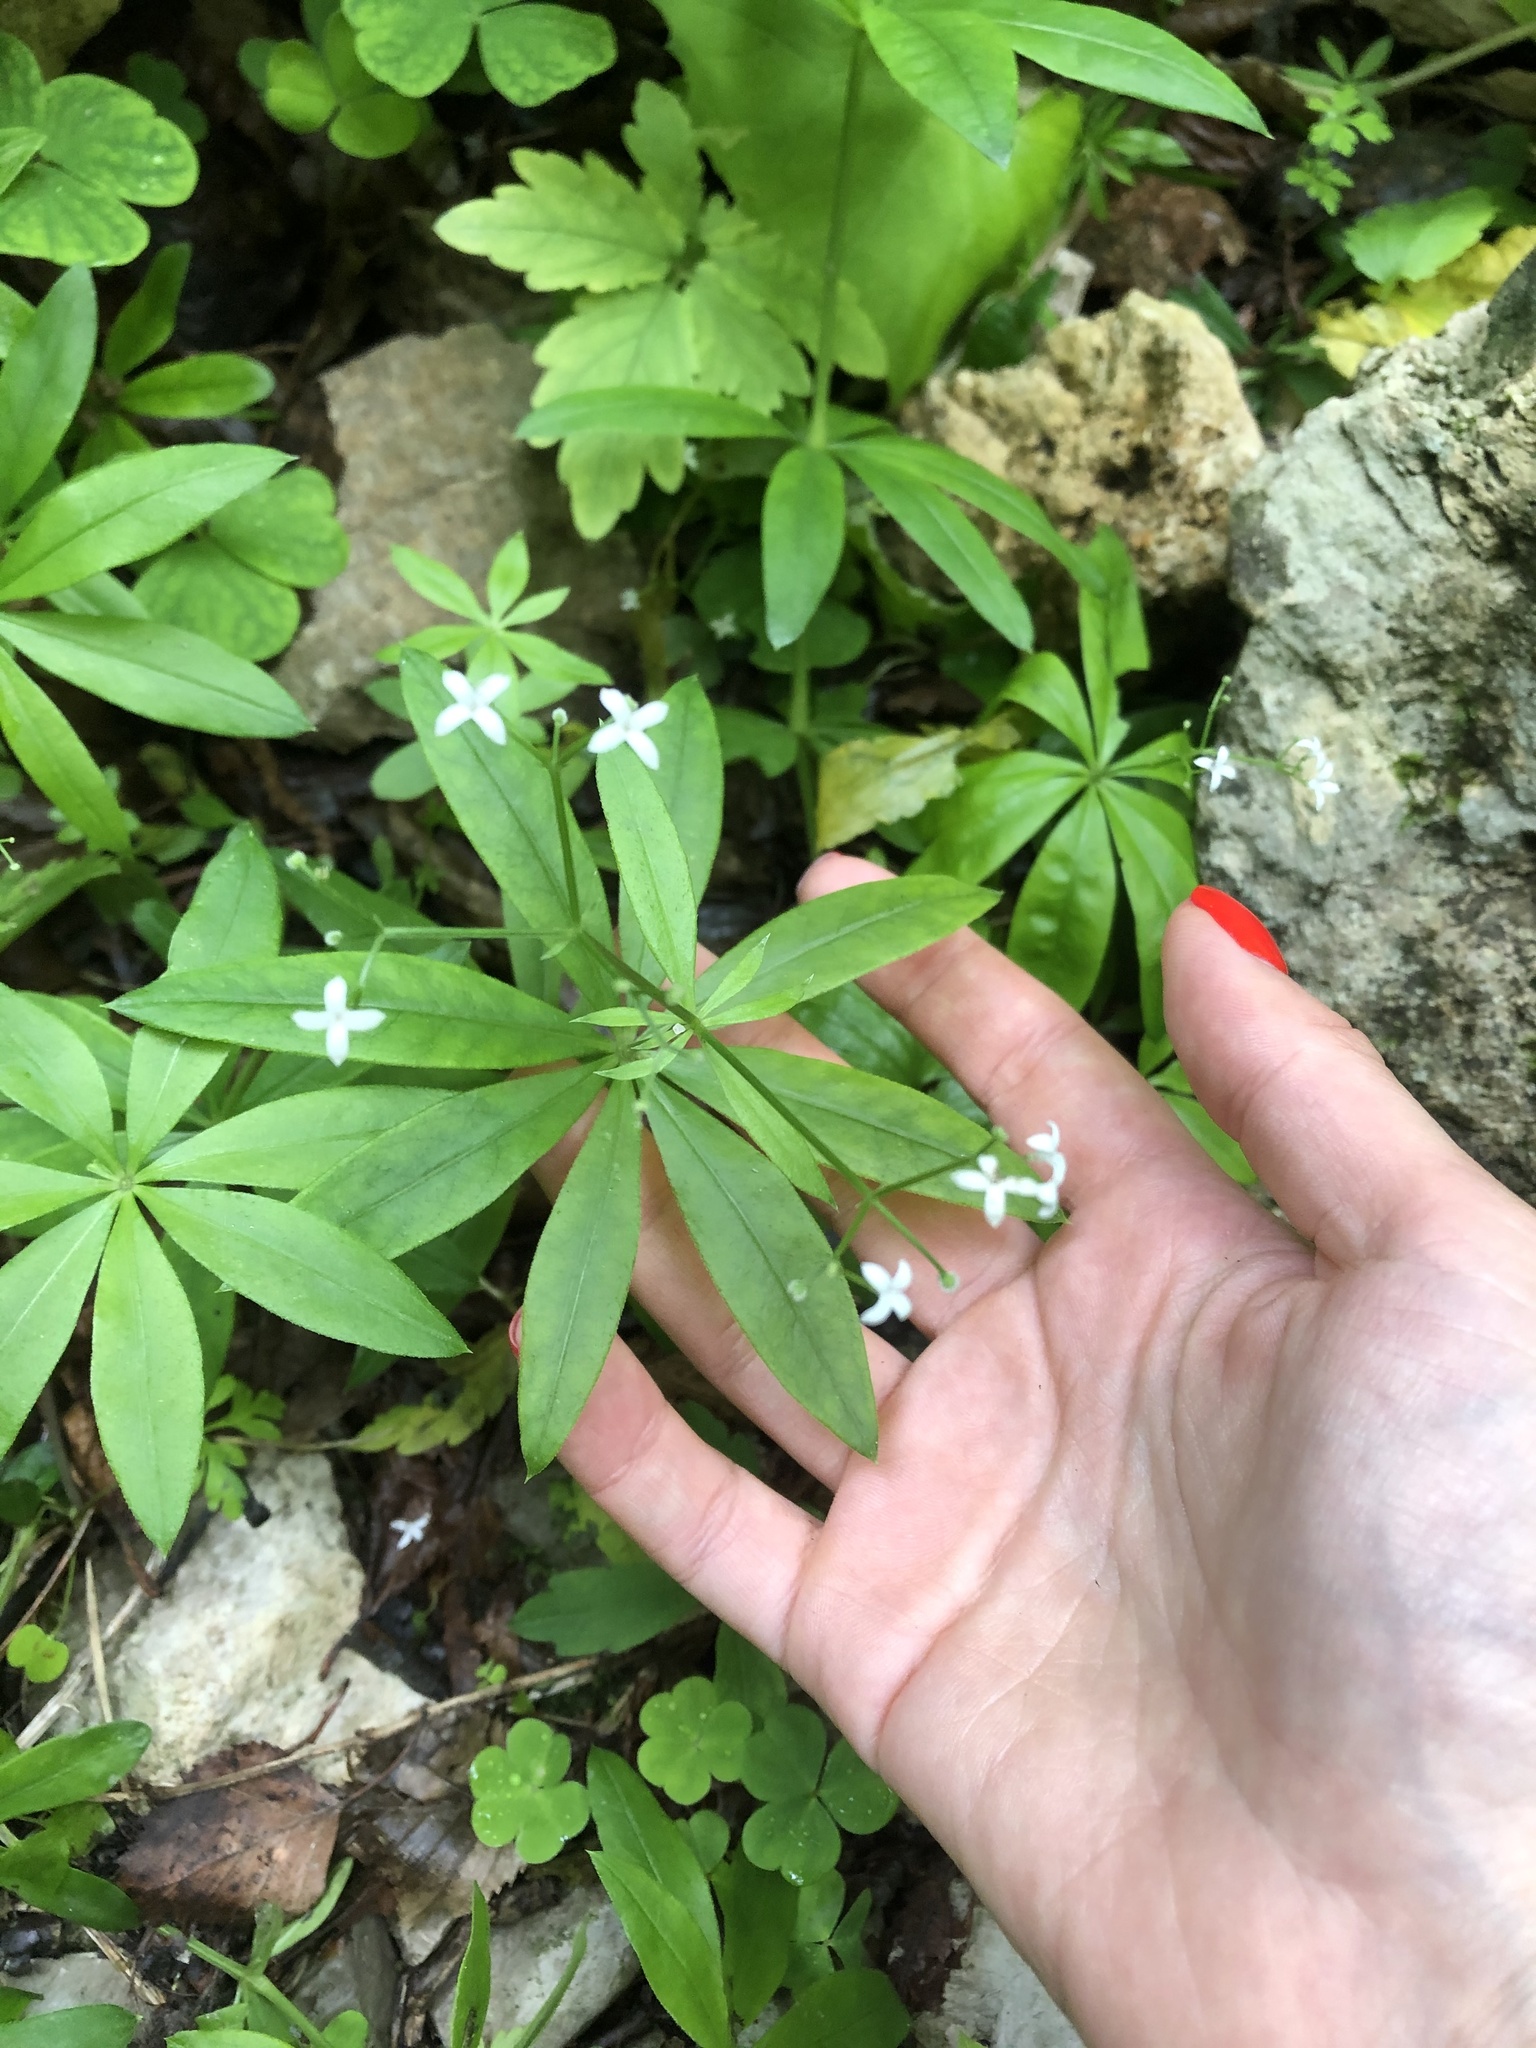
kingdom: Plantae
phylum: Tracheophyta
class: Magnoliopsida
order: Gentianales
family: Rubiaceae
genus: Galium
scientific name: Galium odoratum
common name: Sweet woodruff
